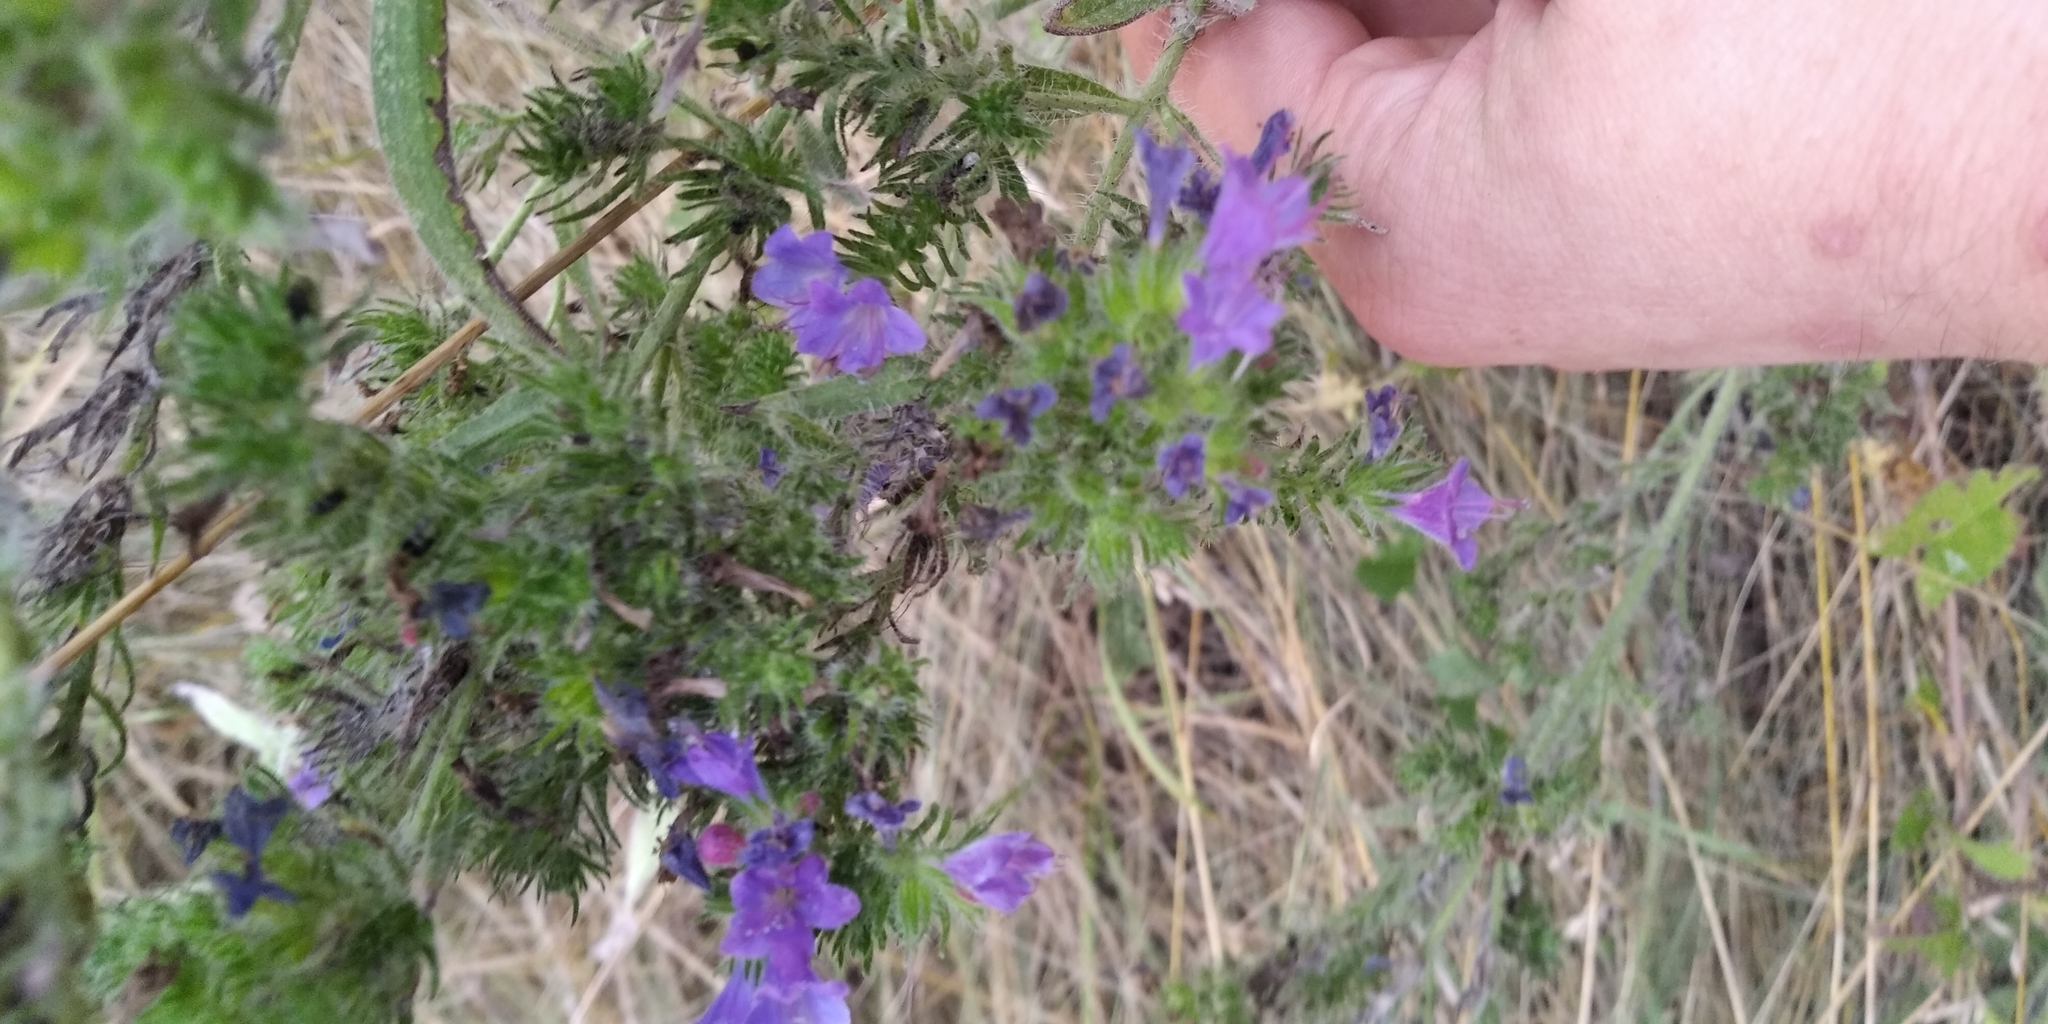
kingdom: Plantae
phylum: Tracheophyta
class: Magnoliopsida
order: Boraginales
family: Boraginaceae
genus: Echium
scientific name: Echium vulgare
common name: Common viper's bugloss
